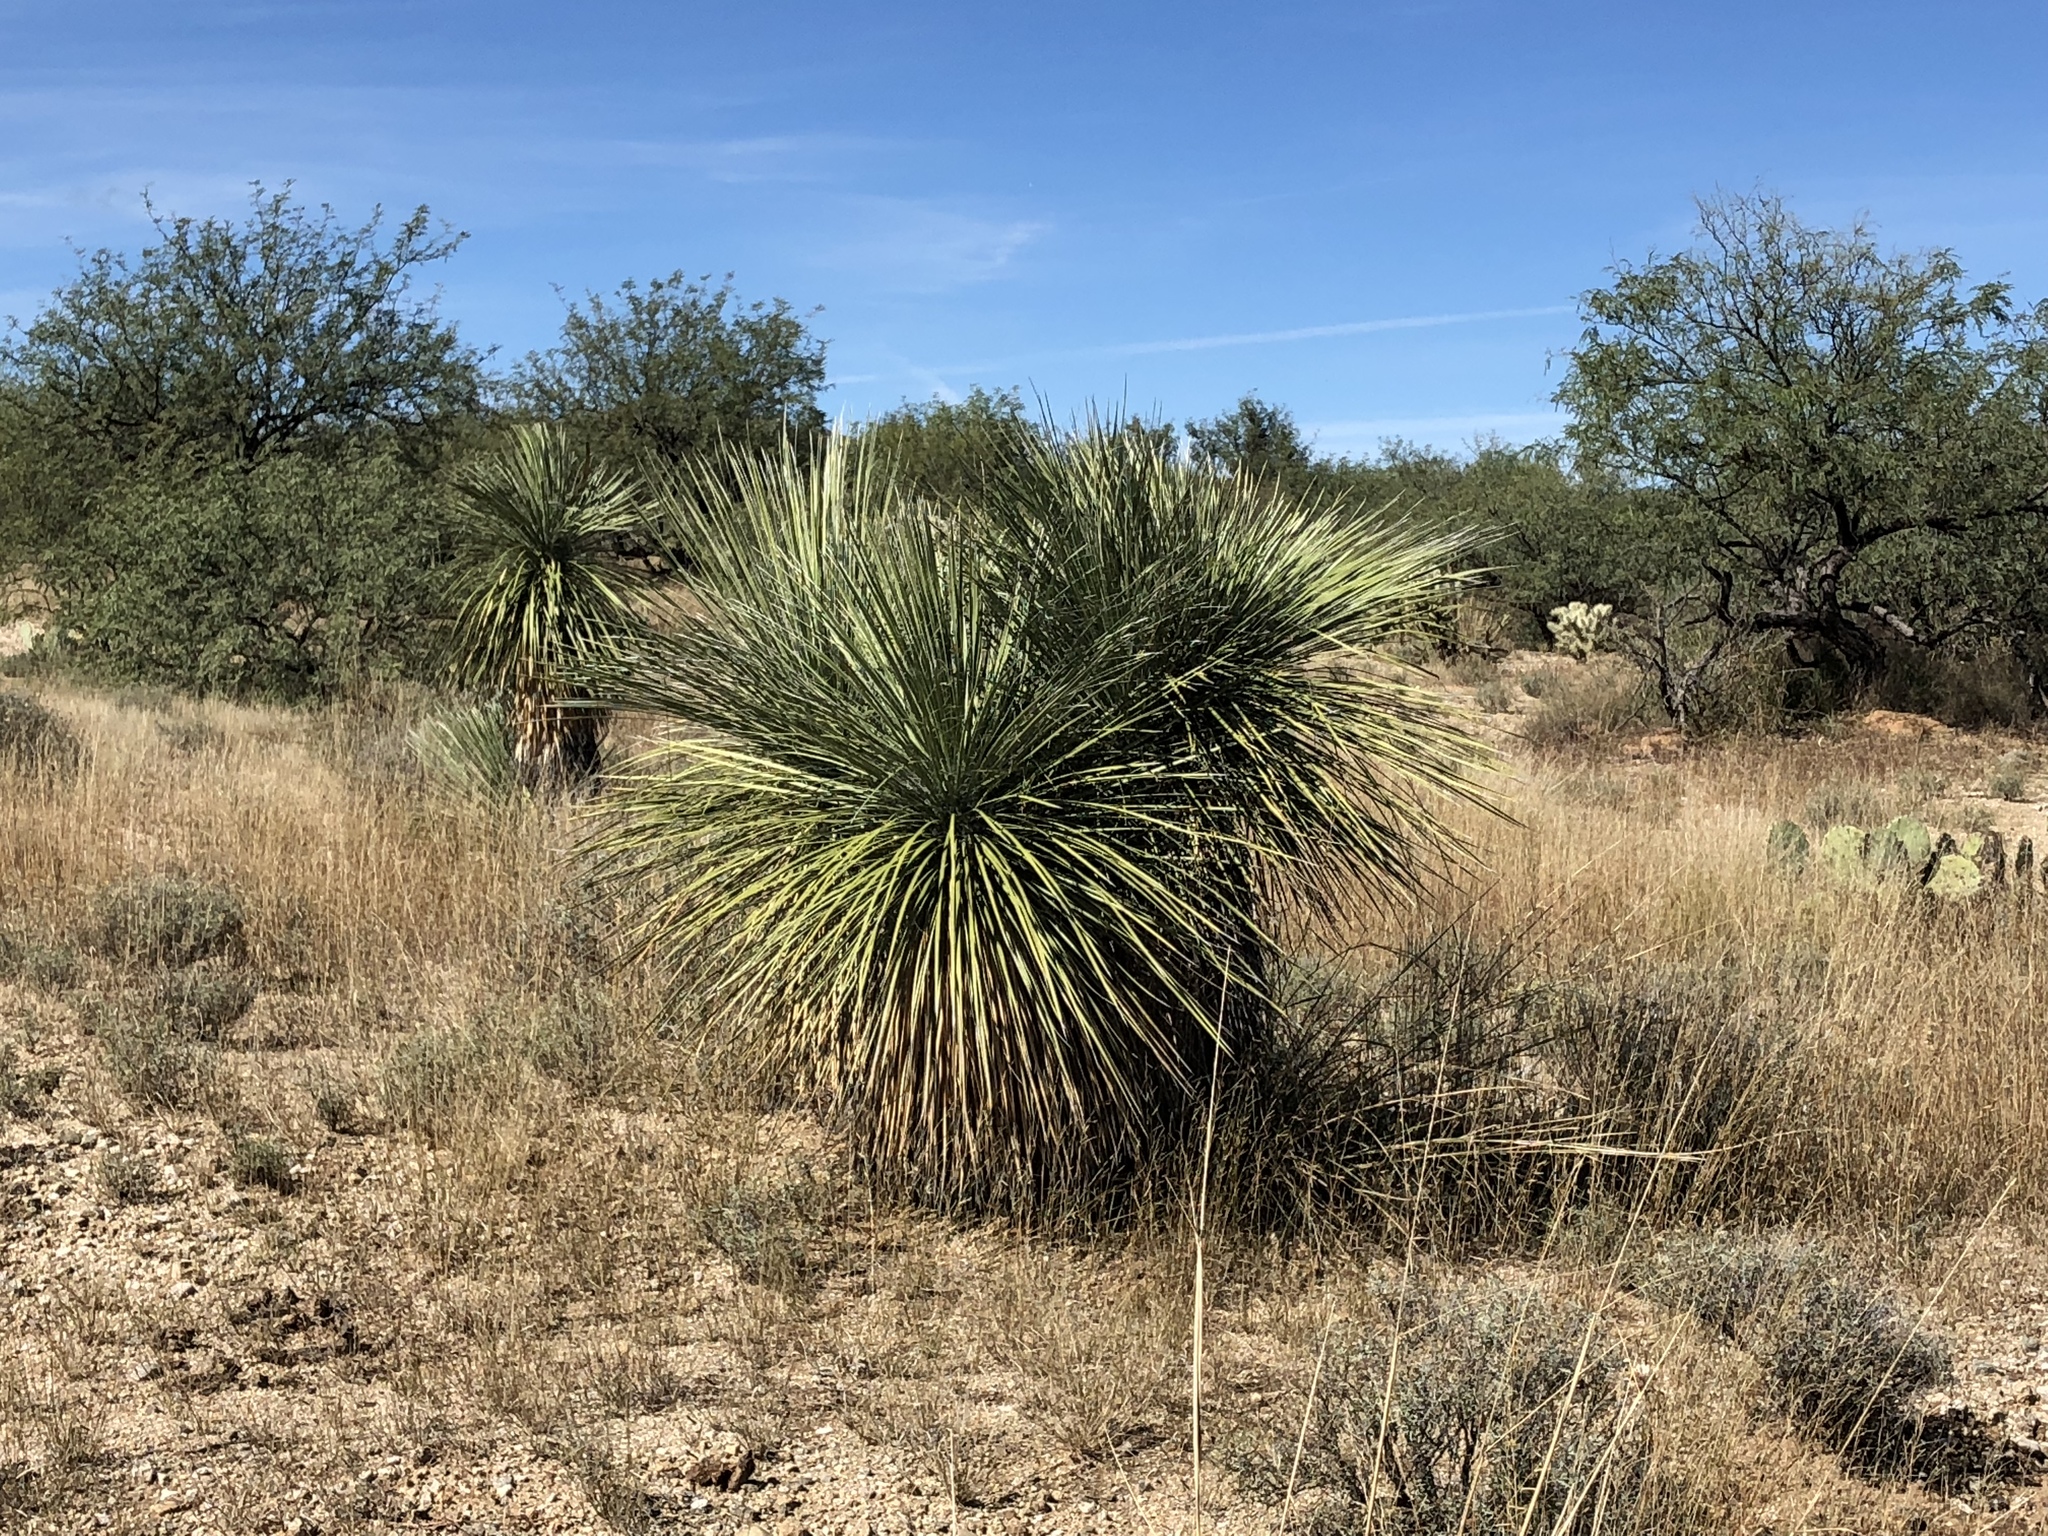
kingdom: Plantae
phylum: Tracheophyta
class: Liliopsida
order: Asparagales
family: Asparagaceae
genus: Yucca
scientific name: Yucca elata
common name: Palmella
